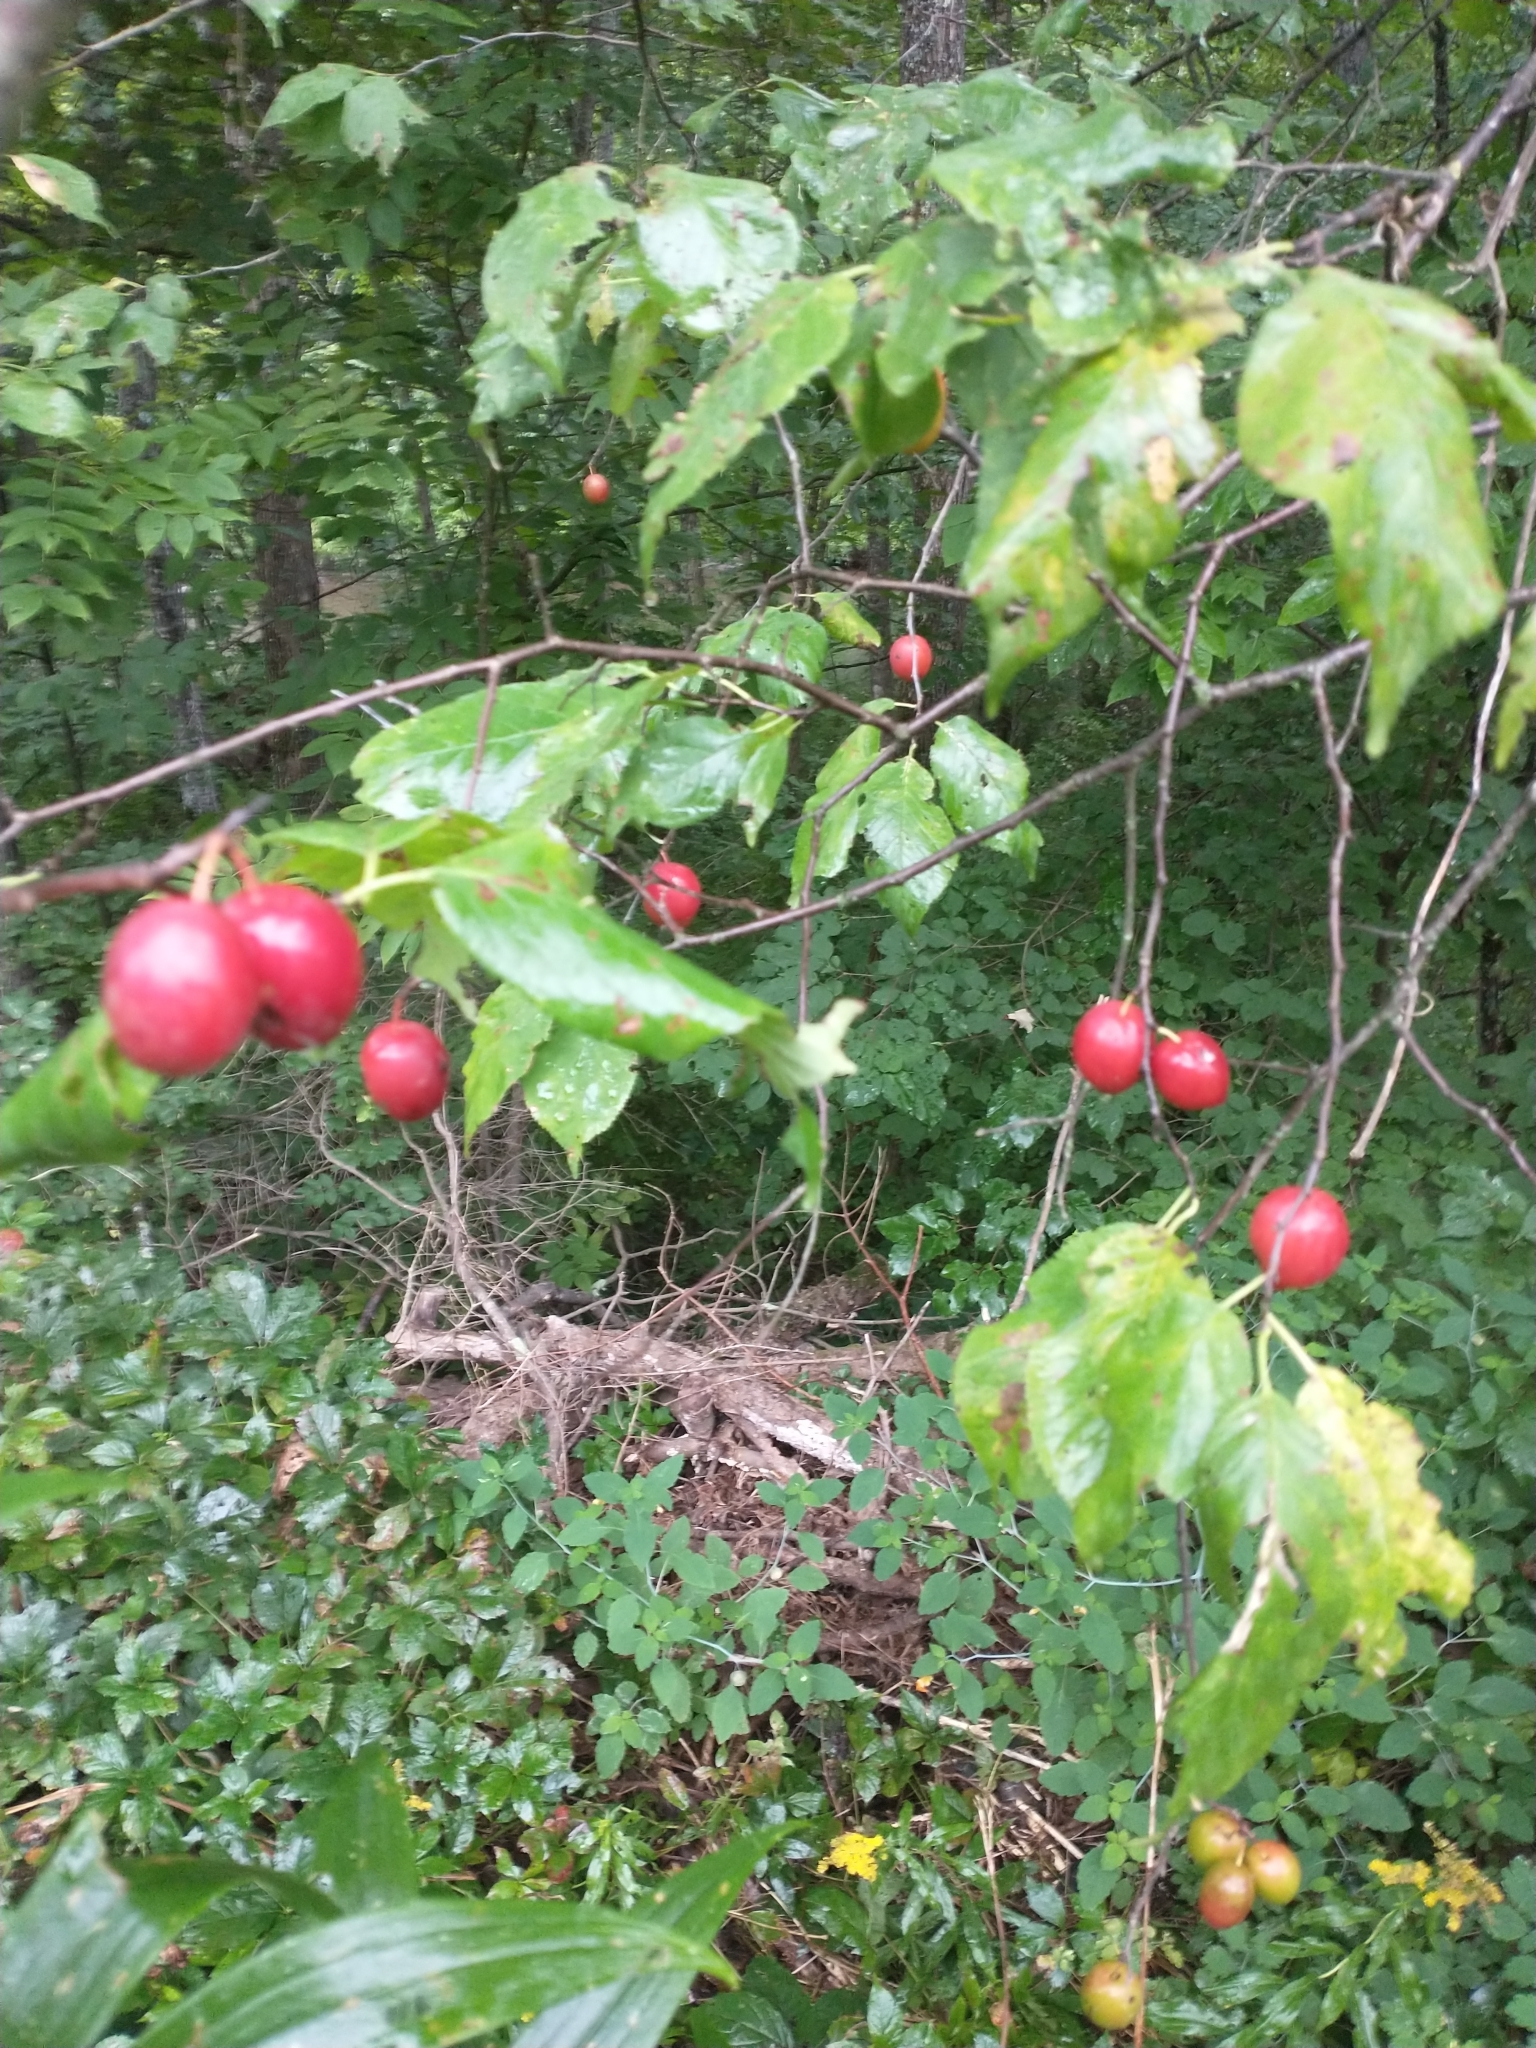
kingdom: Plantae
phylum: Tracheophyta
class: Magnoliopsida
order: Rosales
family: Rosaceae
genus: Prunus
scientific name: Prunus nigra
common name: Black plum
